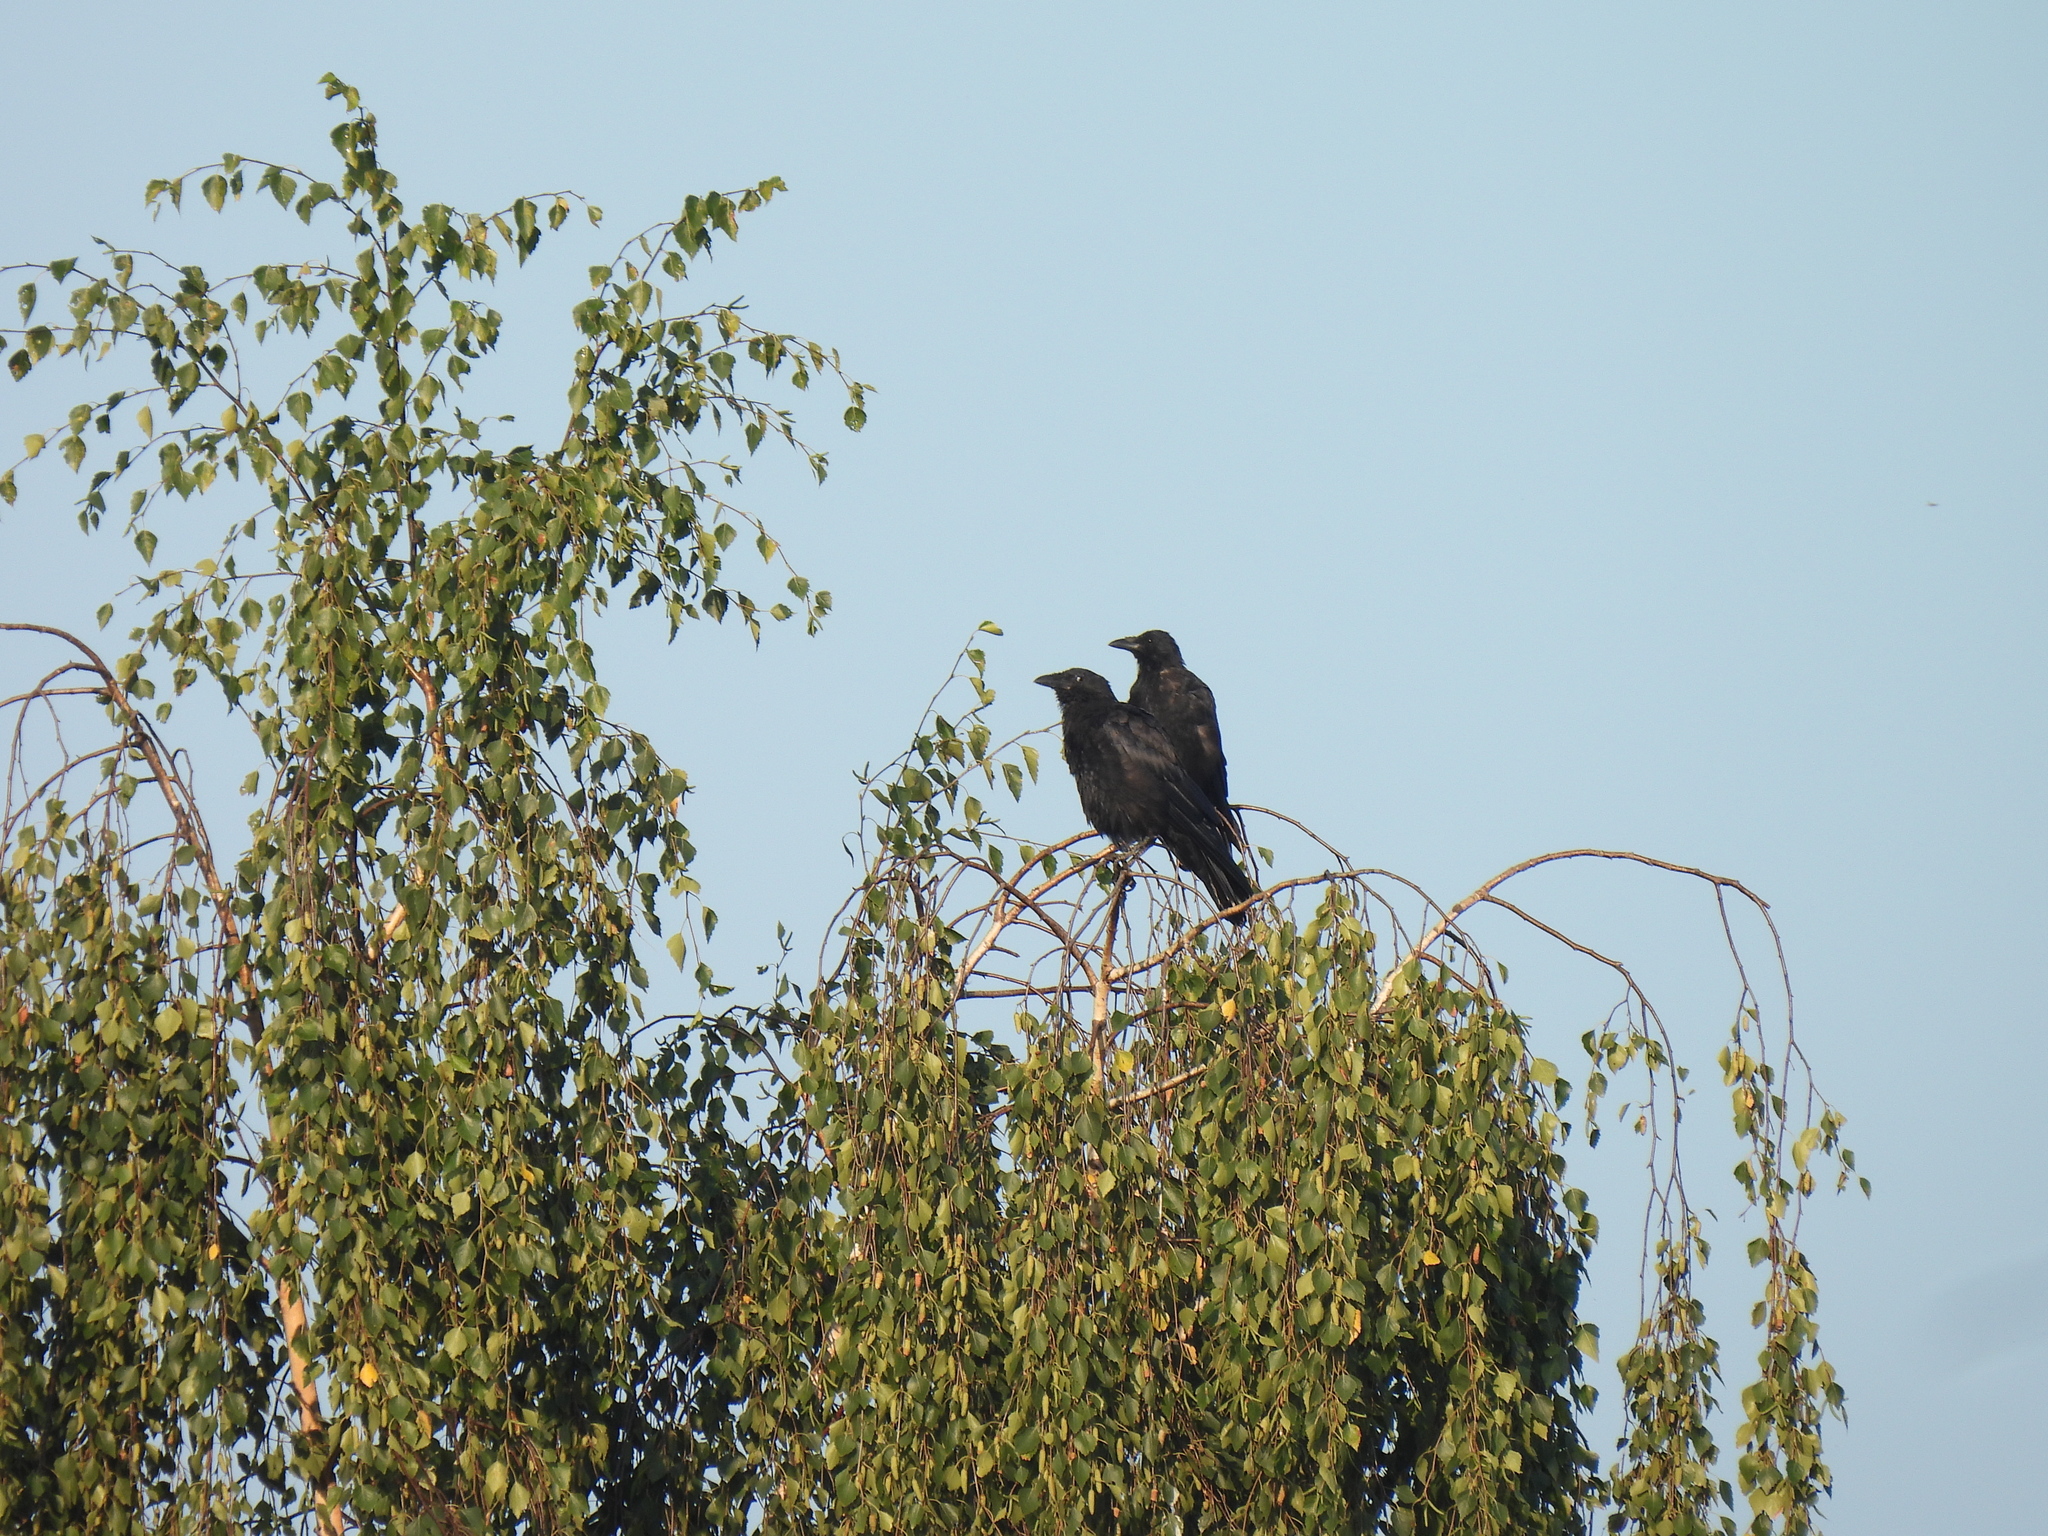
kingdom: Animalia
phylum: Chordata
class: Aves
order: Passeriformes
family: Corvidae
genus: Corvus
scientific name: Corvus corone
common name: Carrion crow
